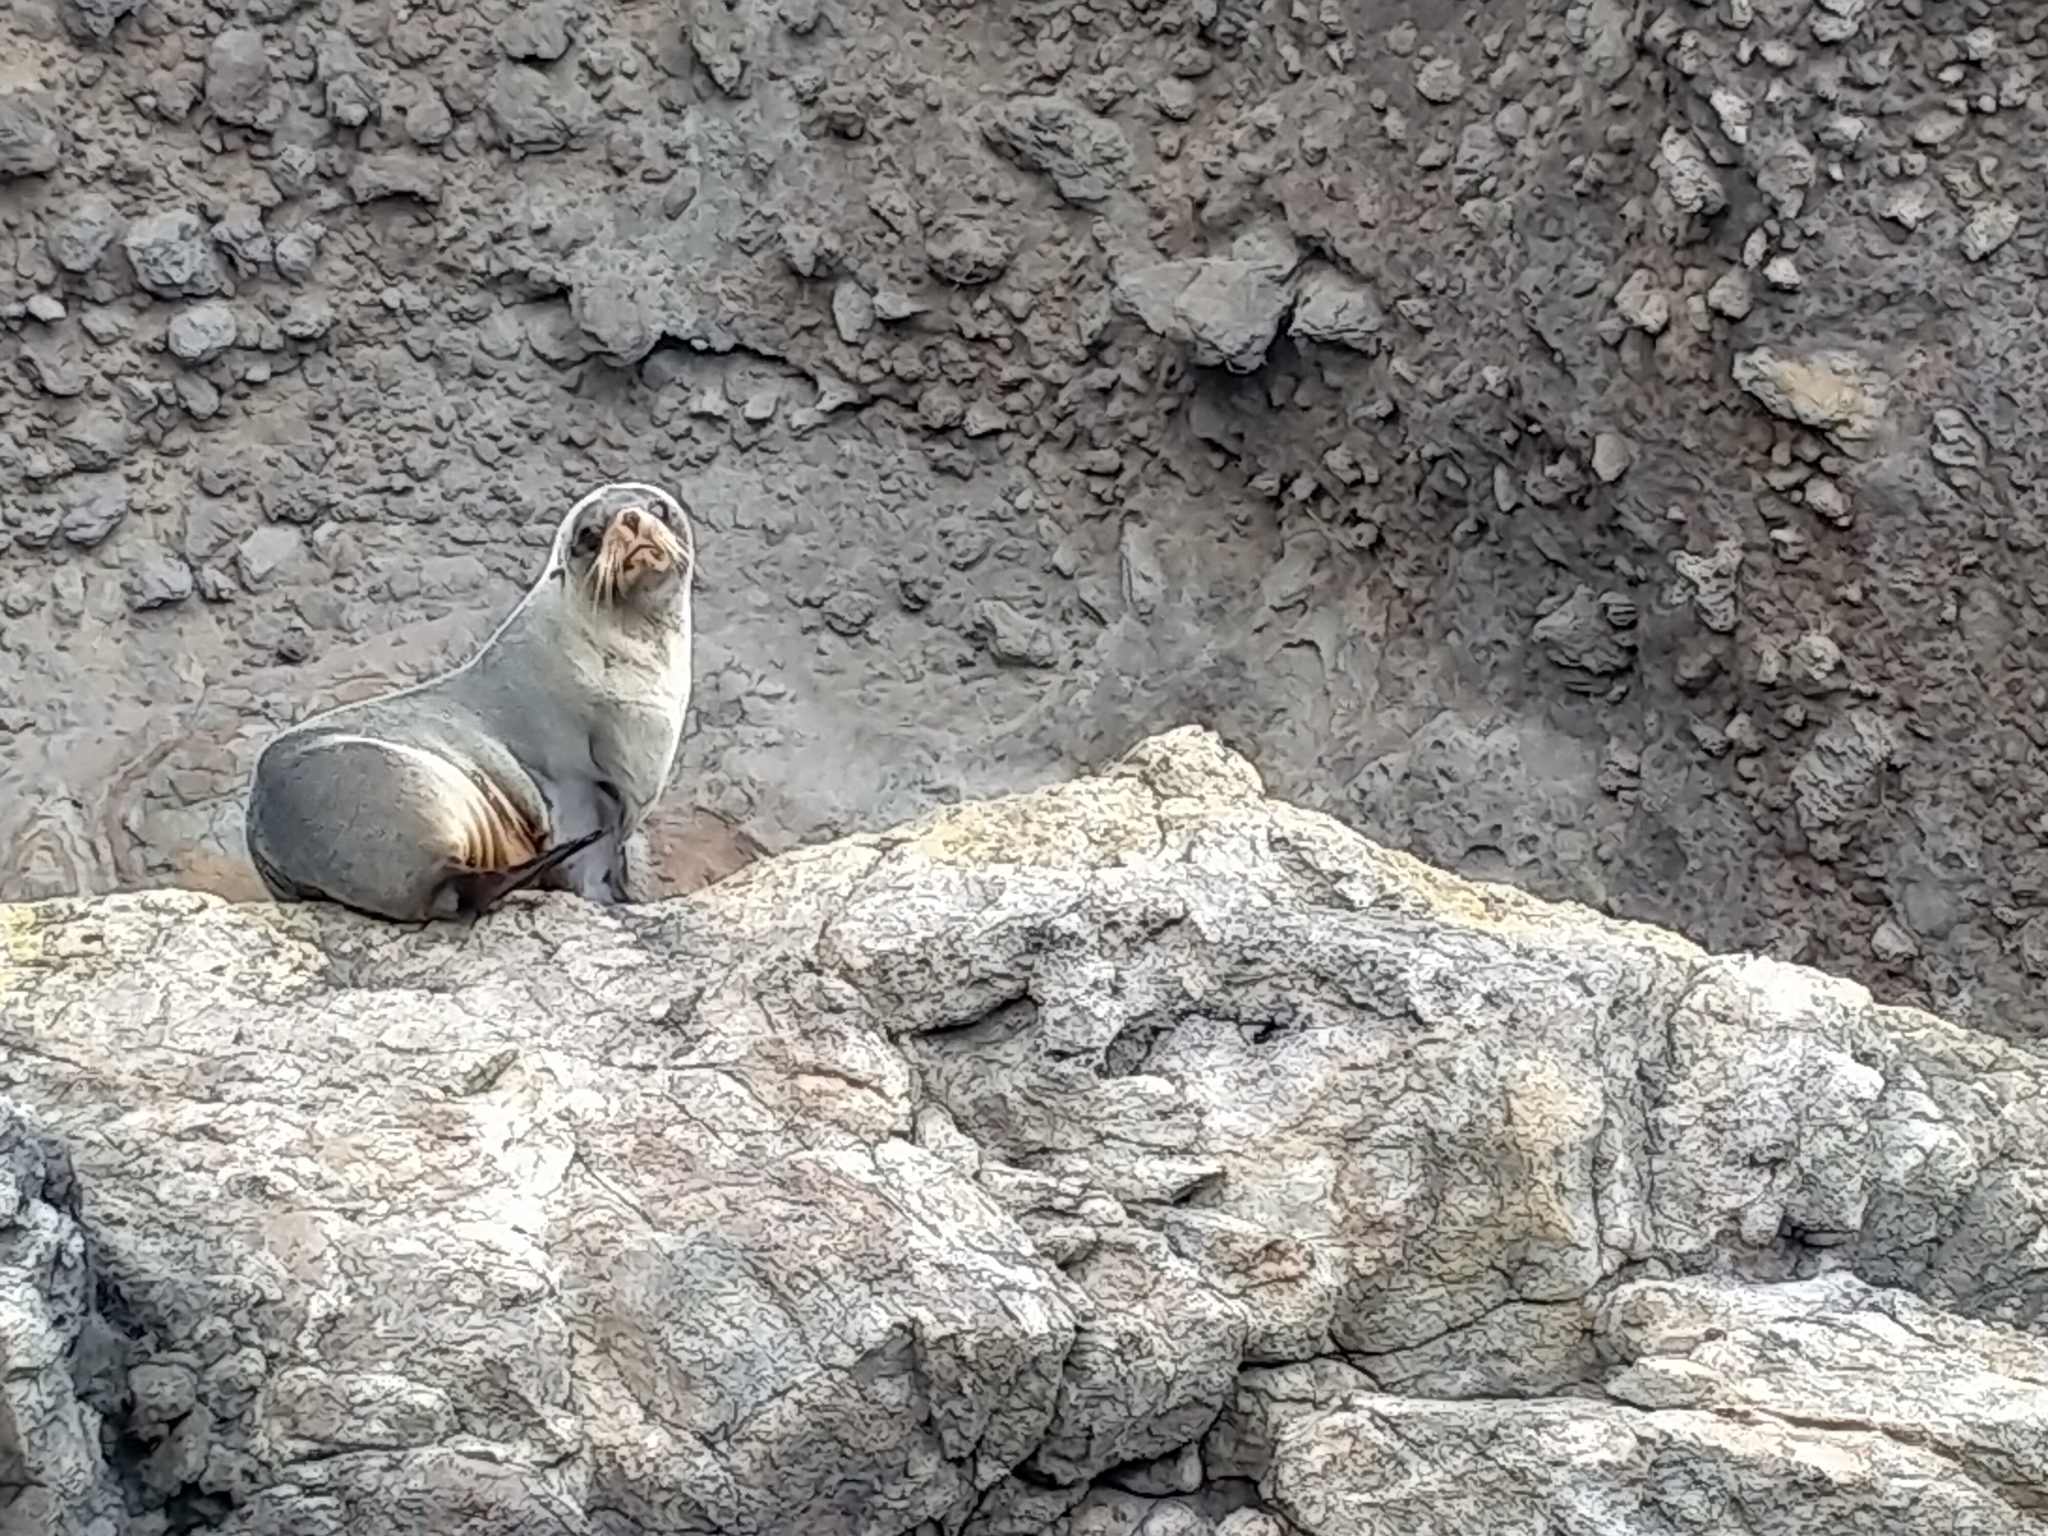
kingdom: Animalia
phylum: Chordata
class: Mammalia
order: Carnivora
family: Otariidae
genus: Arctocephalus
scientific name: Arctocephalus forsteri
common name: New zealand fur seal
